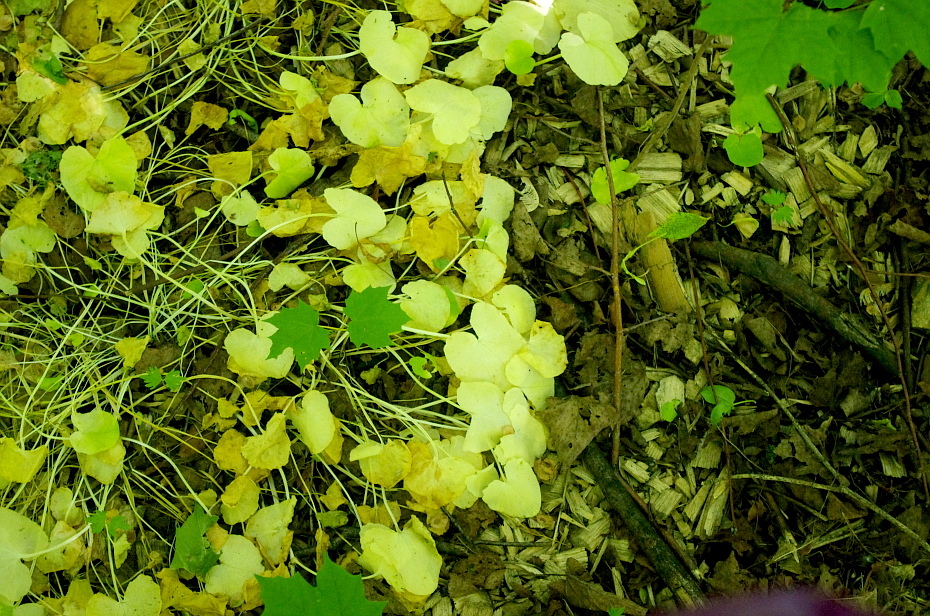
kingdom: Plantae
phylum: Tracheophyta
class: Magnoliopsida
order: Ranunculales
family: Ranunculaceae
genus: Ficaria
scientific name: Ficaria verna
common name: Lesser celandine
